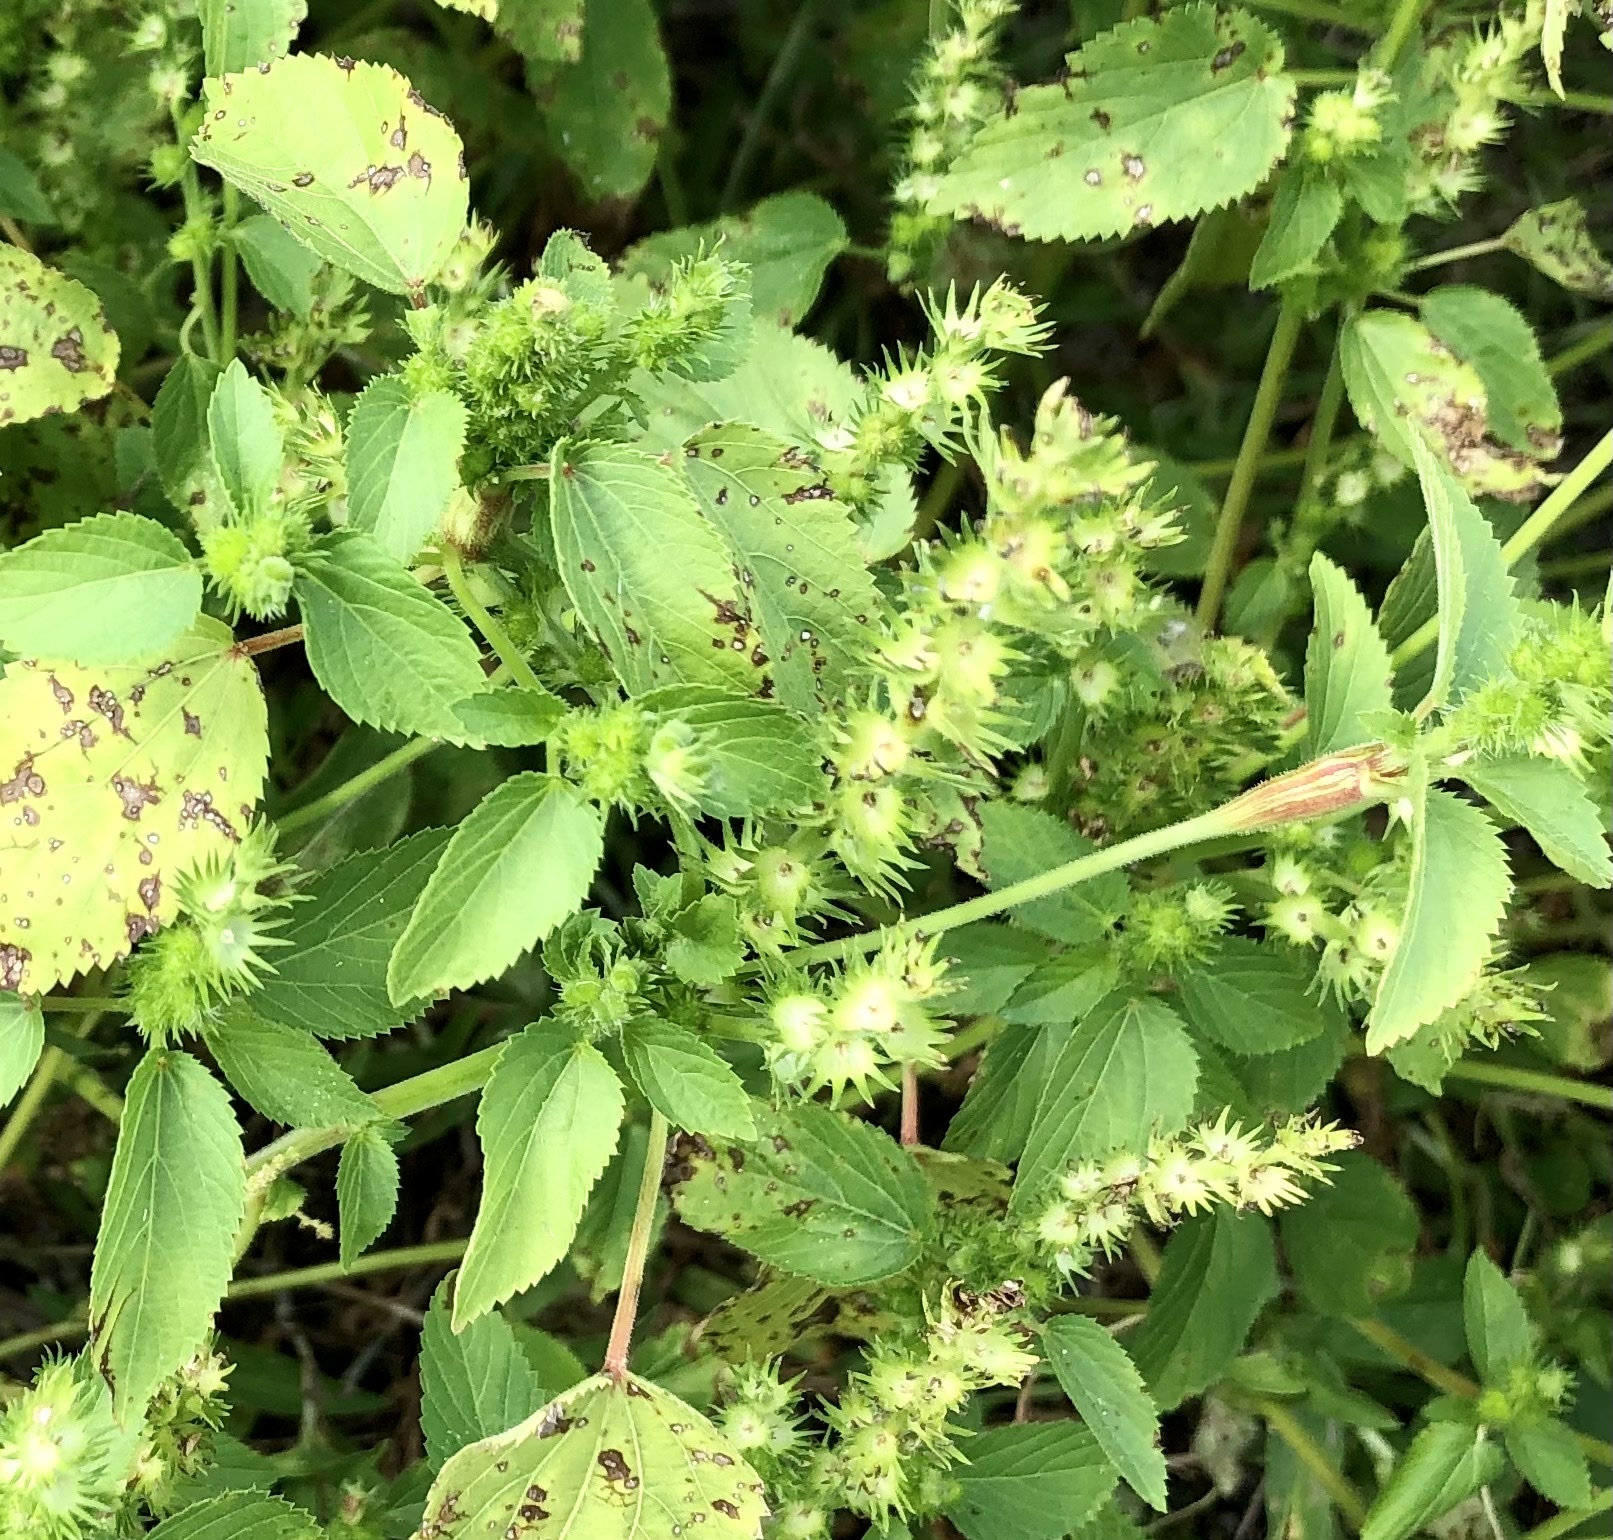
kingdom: Plantae
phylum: Tracheophyta
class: Magnoliopsida
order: Malpighiales
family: Euphorbiaceae
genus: Acalypha
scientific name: Acalypha ostryifolia
